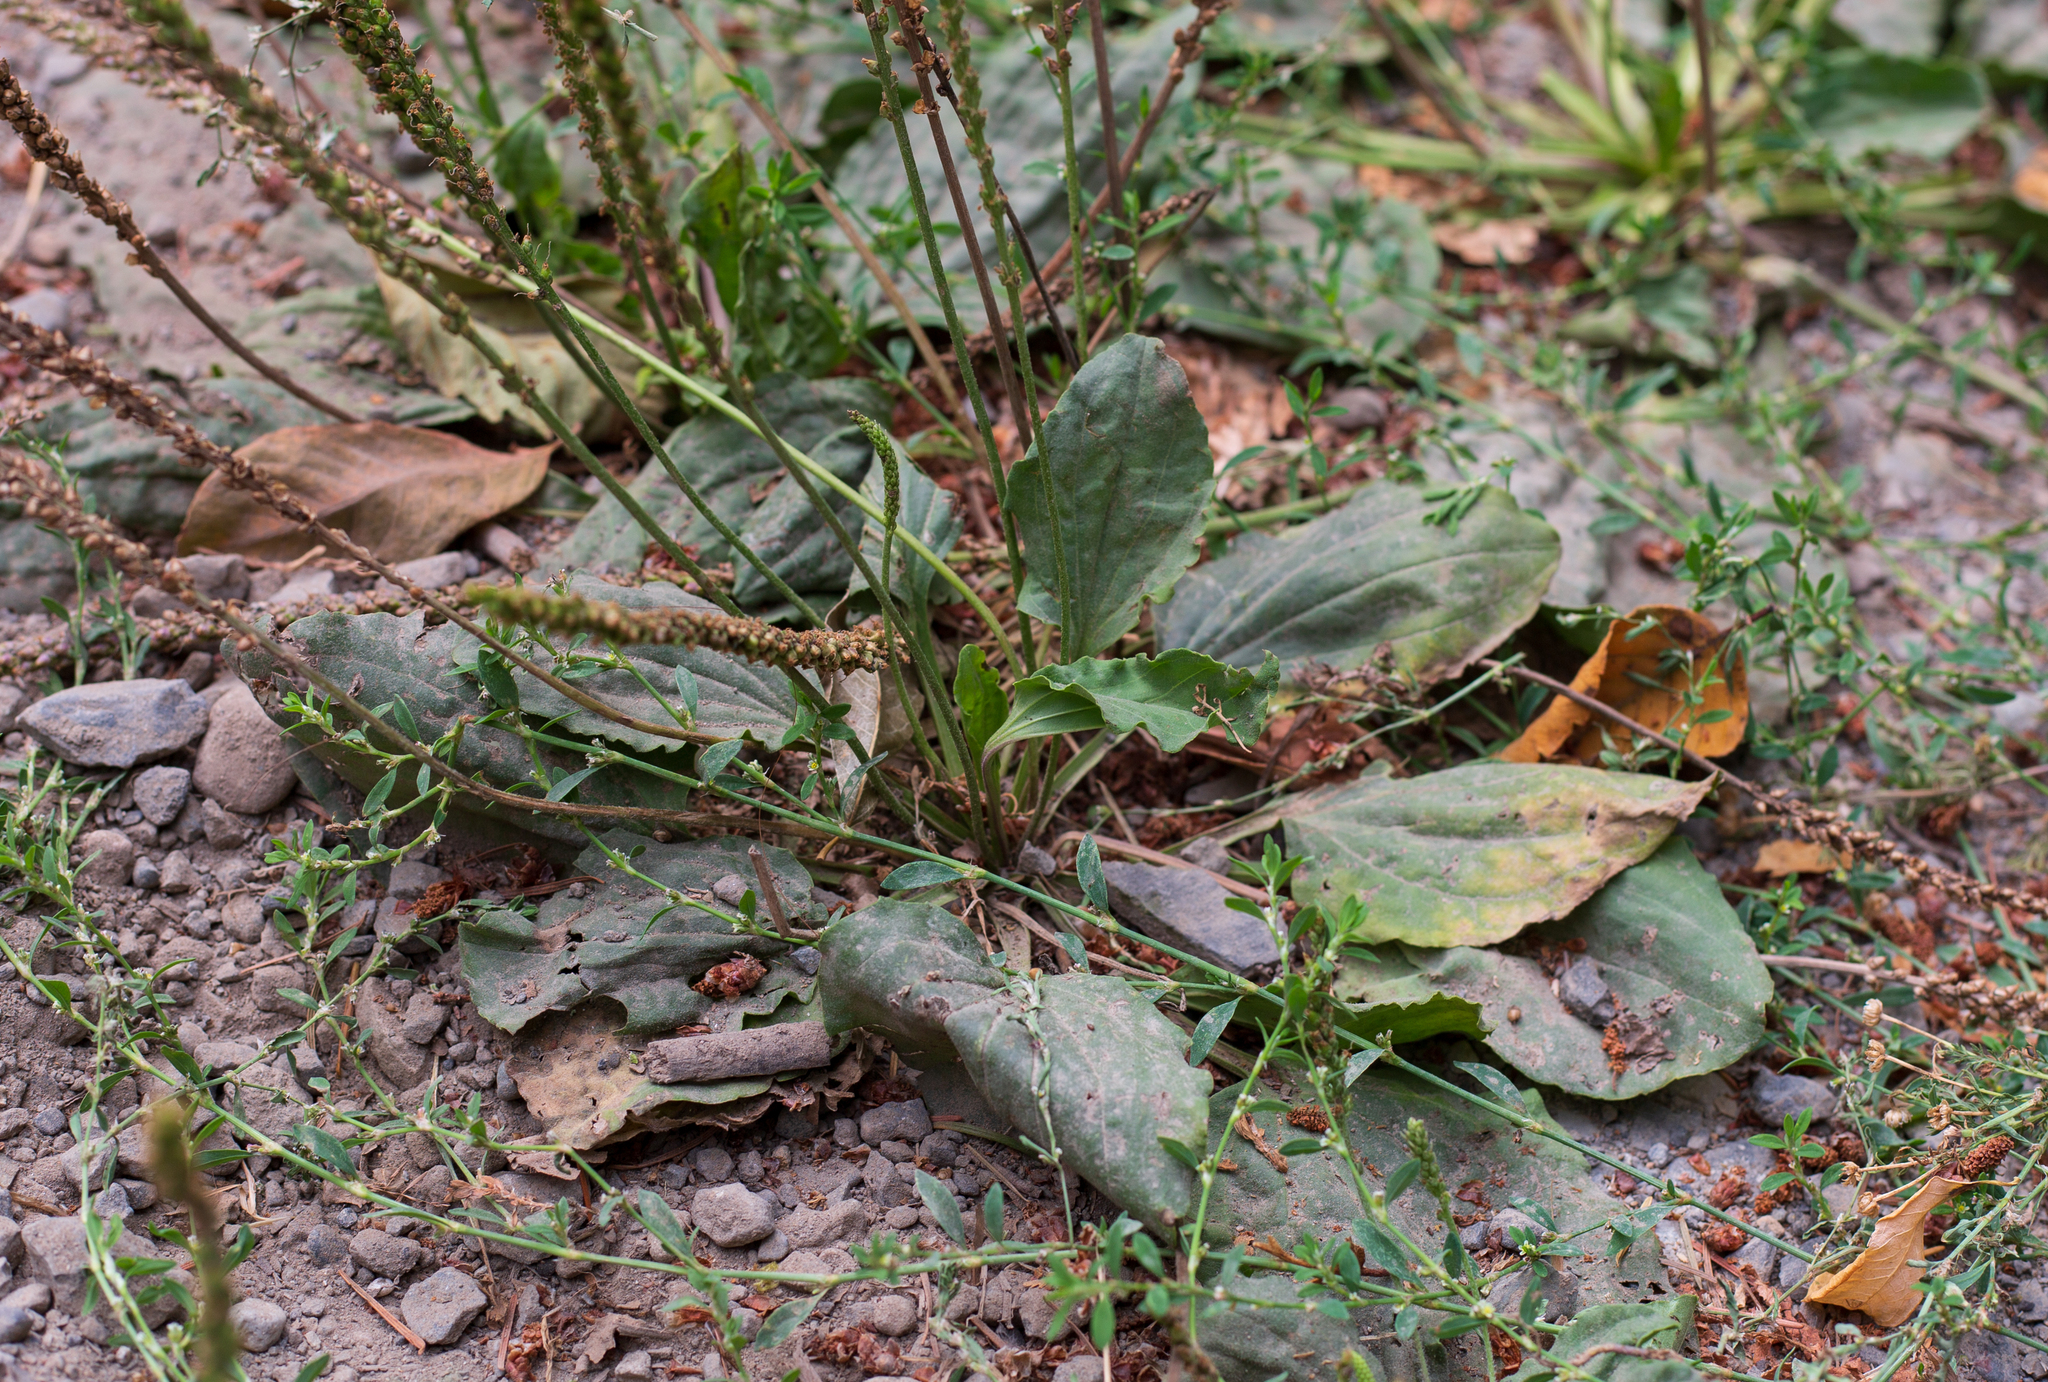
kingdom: Plantae
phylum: Tracheophyta
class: Magnoliopsida
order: Lamiales
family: Plantaginaceae
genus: Plantago
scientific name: Plantago major
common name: Common plantain
